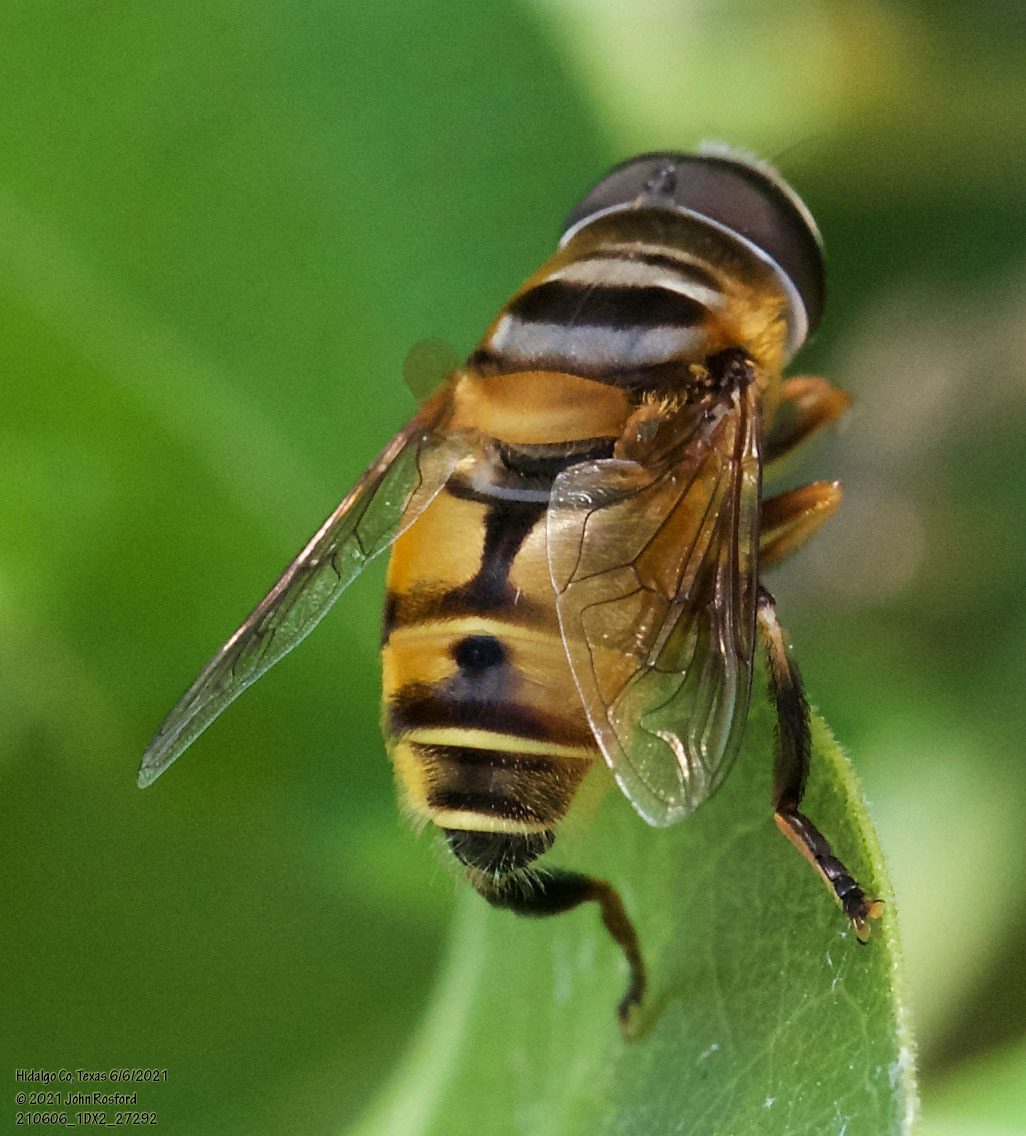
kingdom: Animalia
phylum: Arthropoda
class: Insecta
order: Diptera
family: Syrphidae
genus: Palpada
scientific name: Palpada vinetorum
